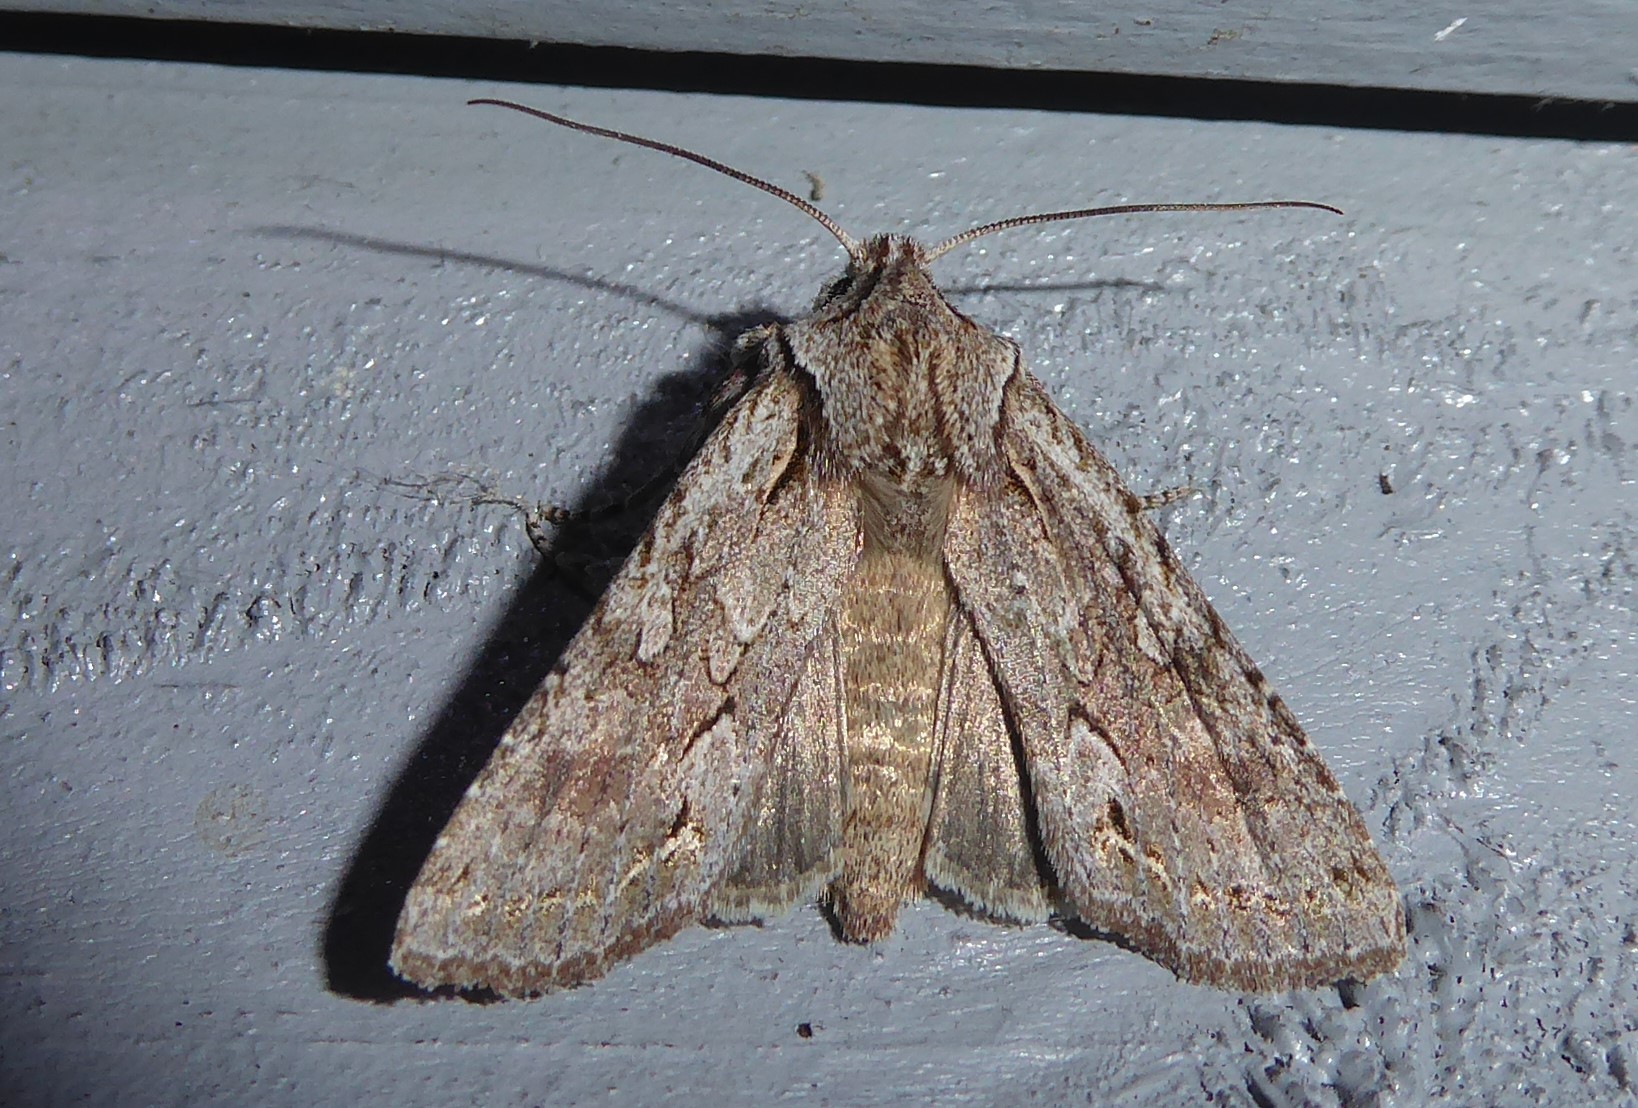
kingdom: Animalia
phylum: Arthropoda
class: Insecta
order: Lepidoptera
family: Noctuidae
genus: Ichneutica
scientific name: Ichneutica
